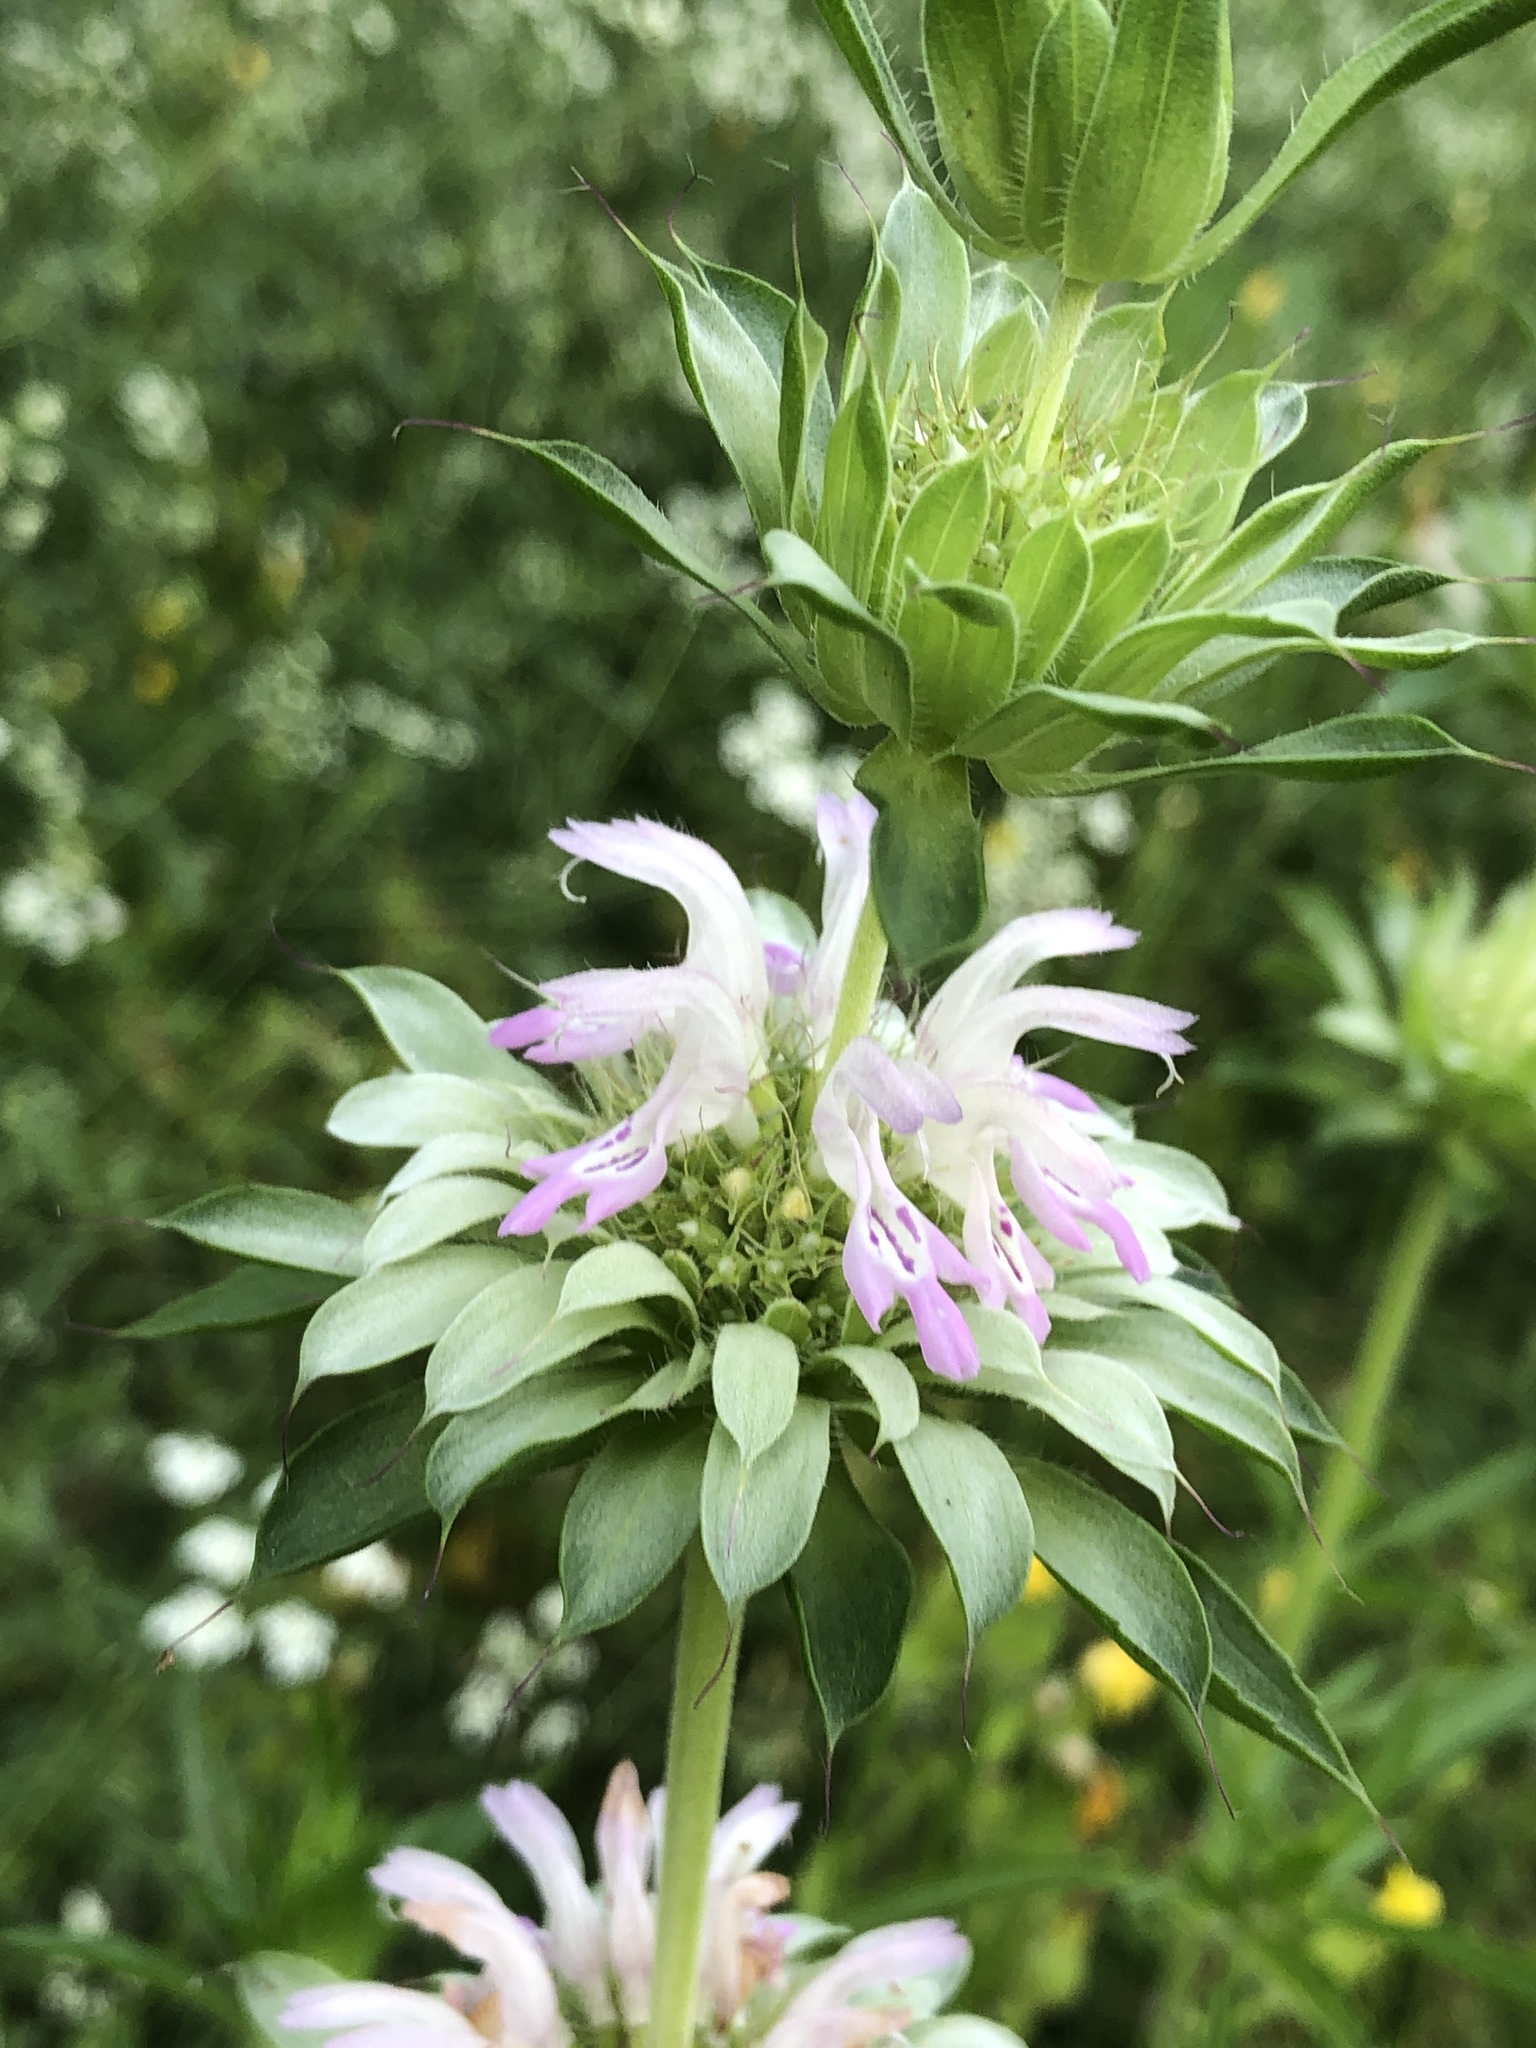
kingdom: Plantae
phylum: Tracheophyta
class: Magnoliopsida
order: Lamiales
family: Lamiaceae
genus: Monarda
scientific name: Monarda citriodora
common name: Lemon beebalm
